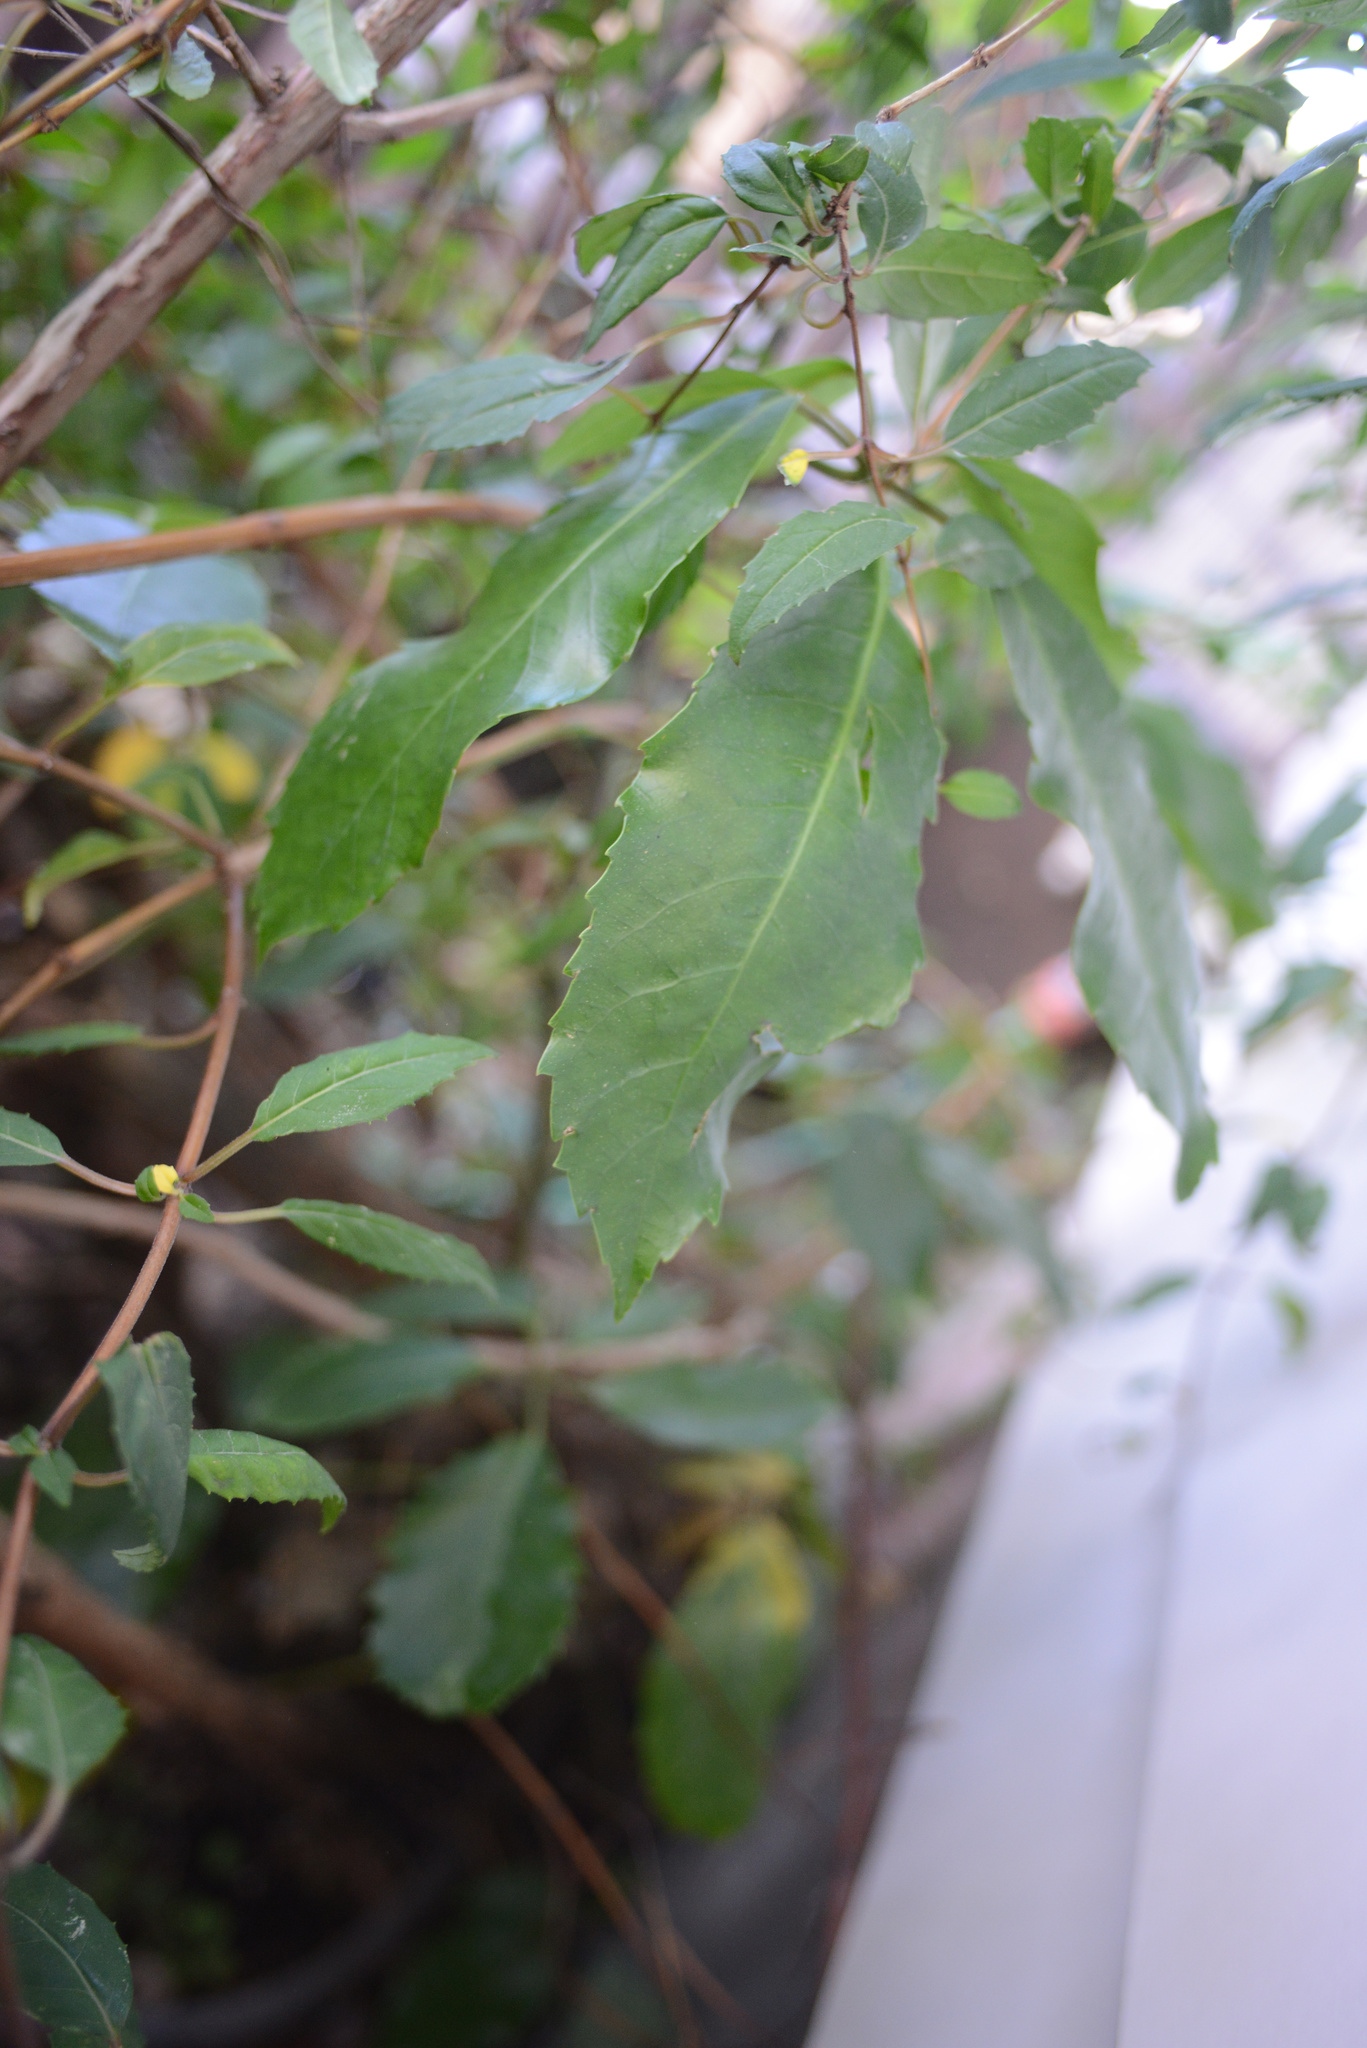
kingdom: Plantae
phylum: Tracheophyta
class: Magnoliopsida
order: Apiales
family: Araliaceae
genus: Neopanax
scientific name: Neopanax arboreus
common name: Five-fingers
